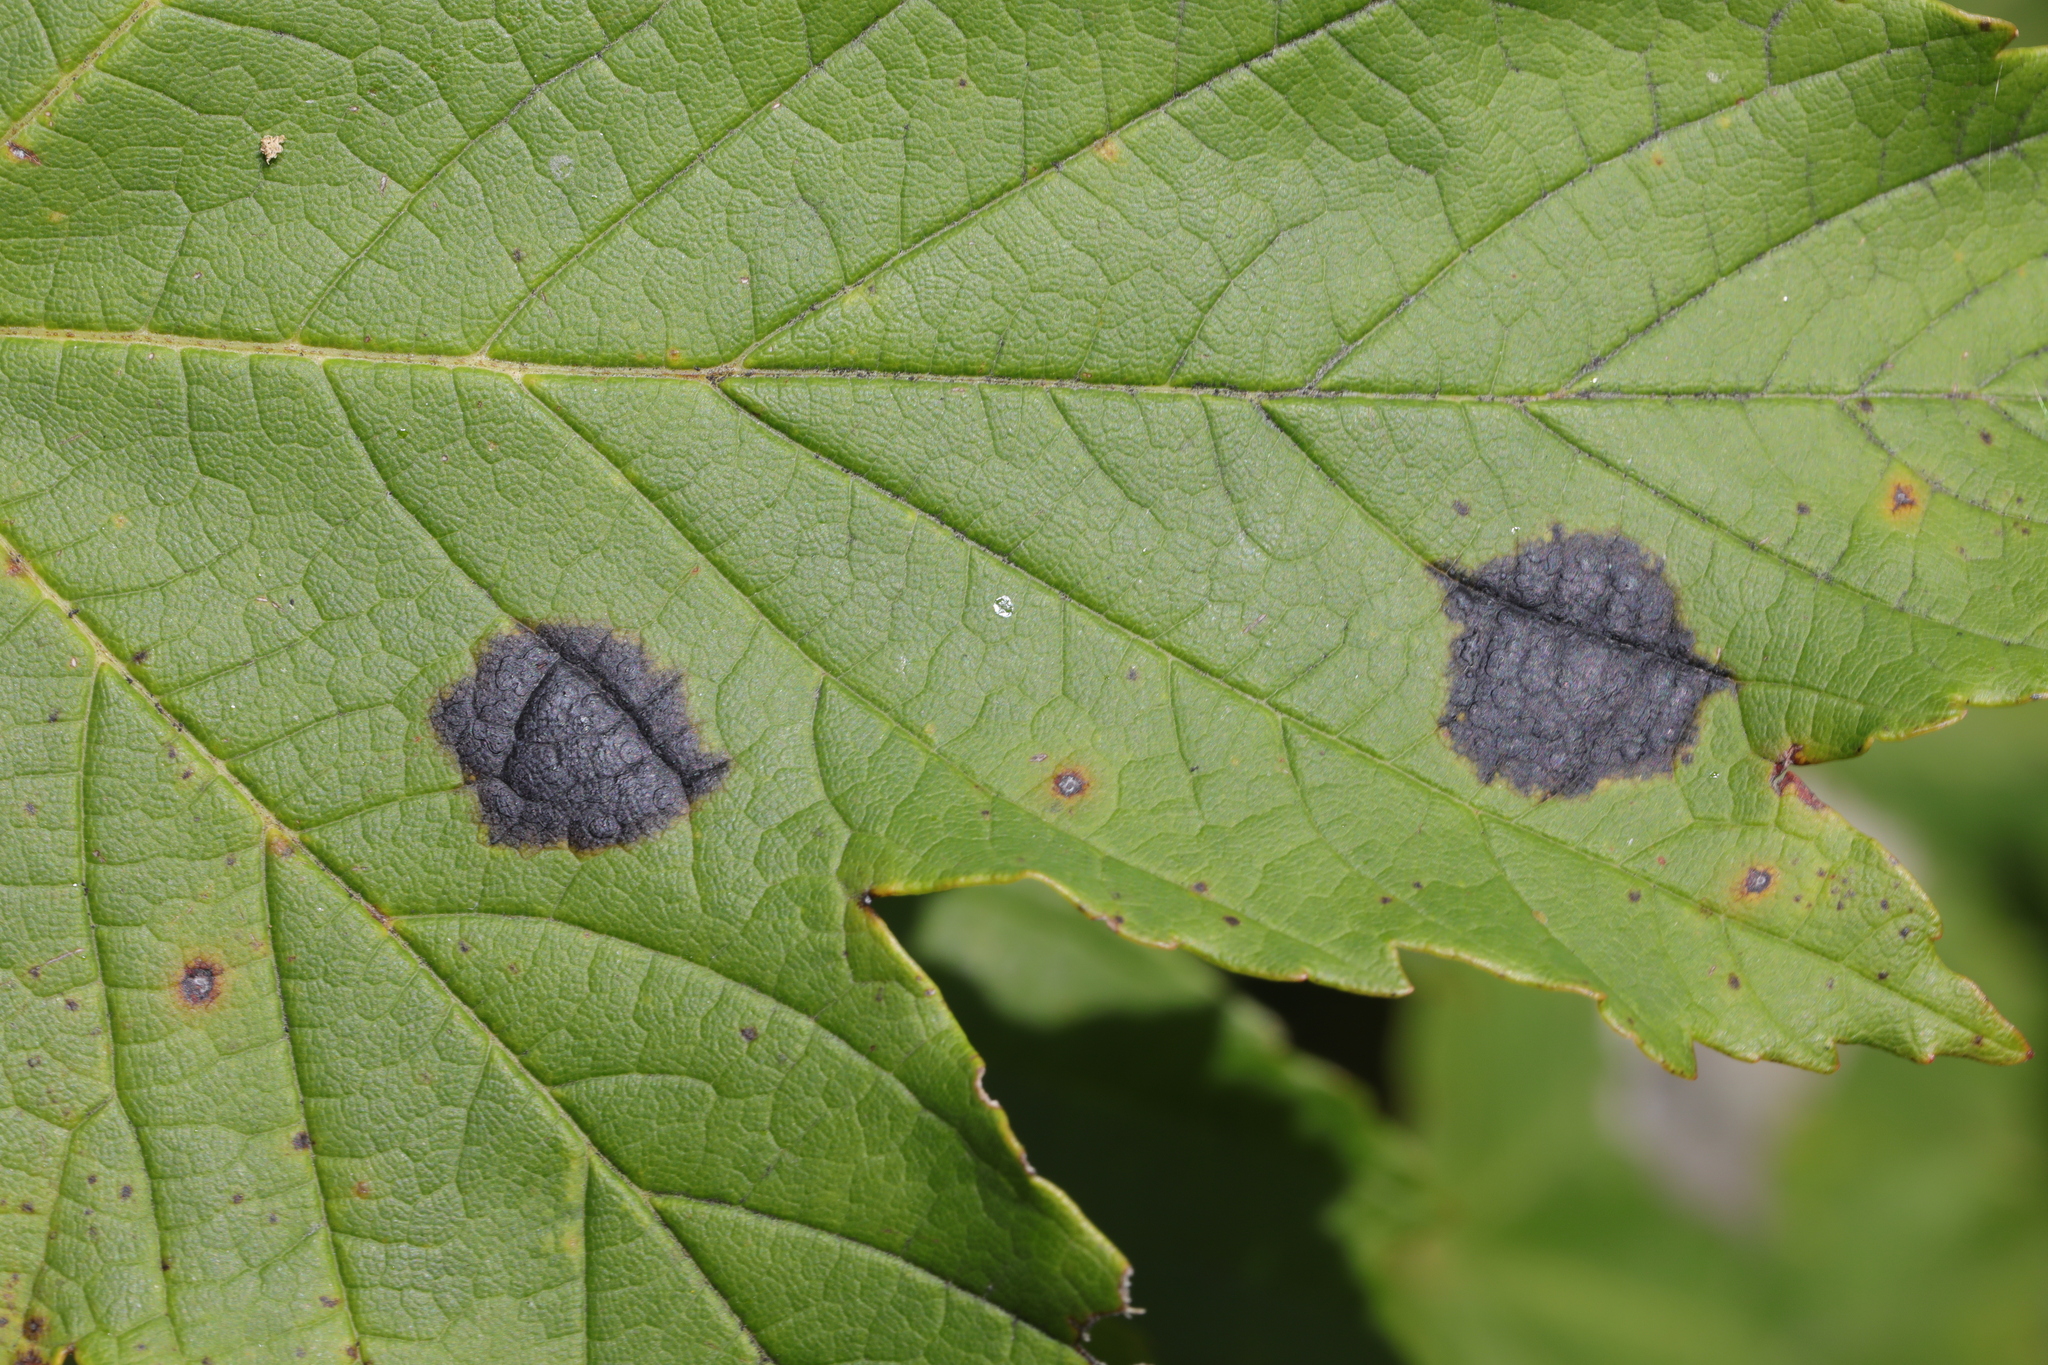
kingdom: Fungi
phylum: Ascomycota
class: Leotiomycetes
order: Rhytismatales
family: Rhytismataceae
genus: Rhytisma
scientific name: Rhytisma acerinum
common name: European tar spot
